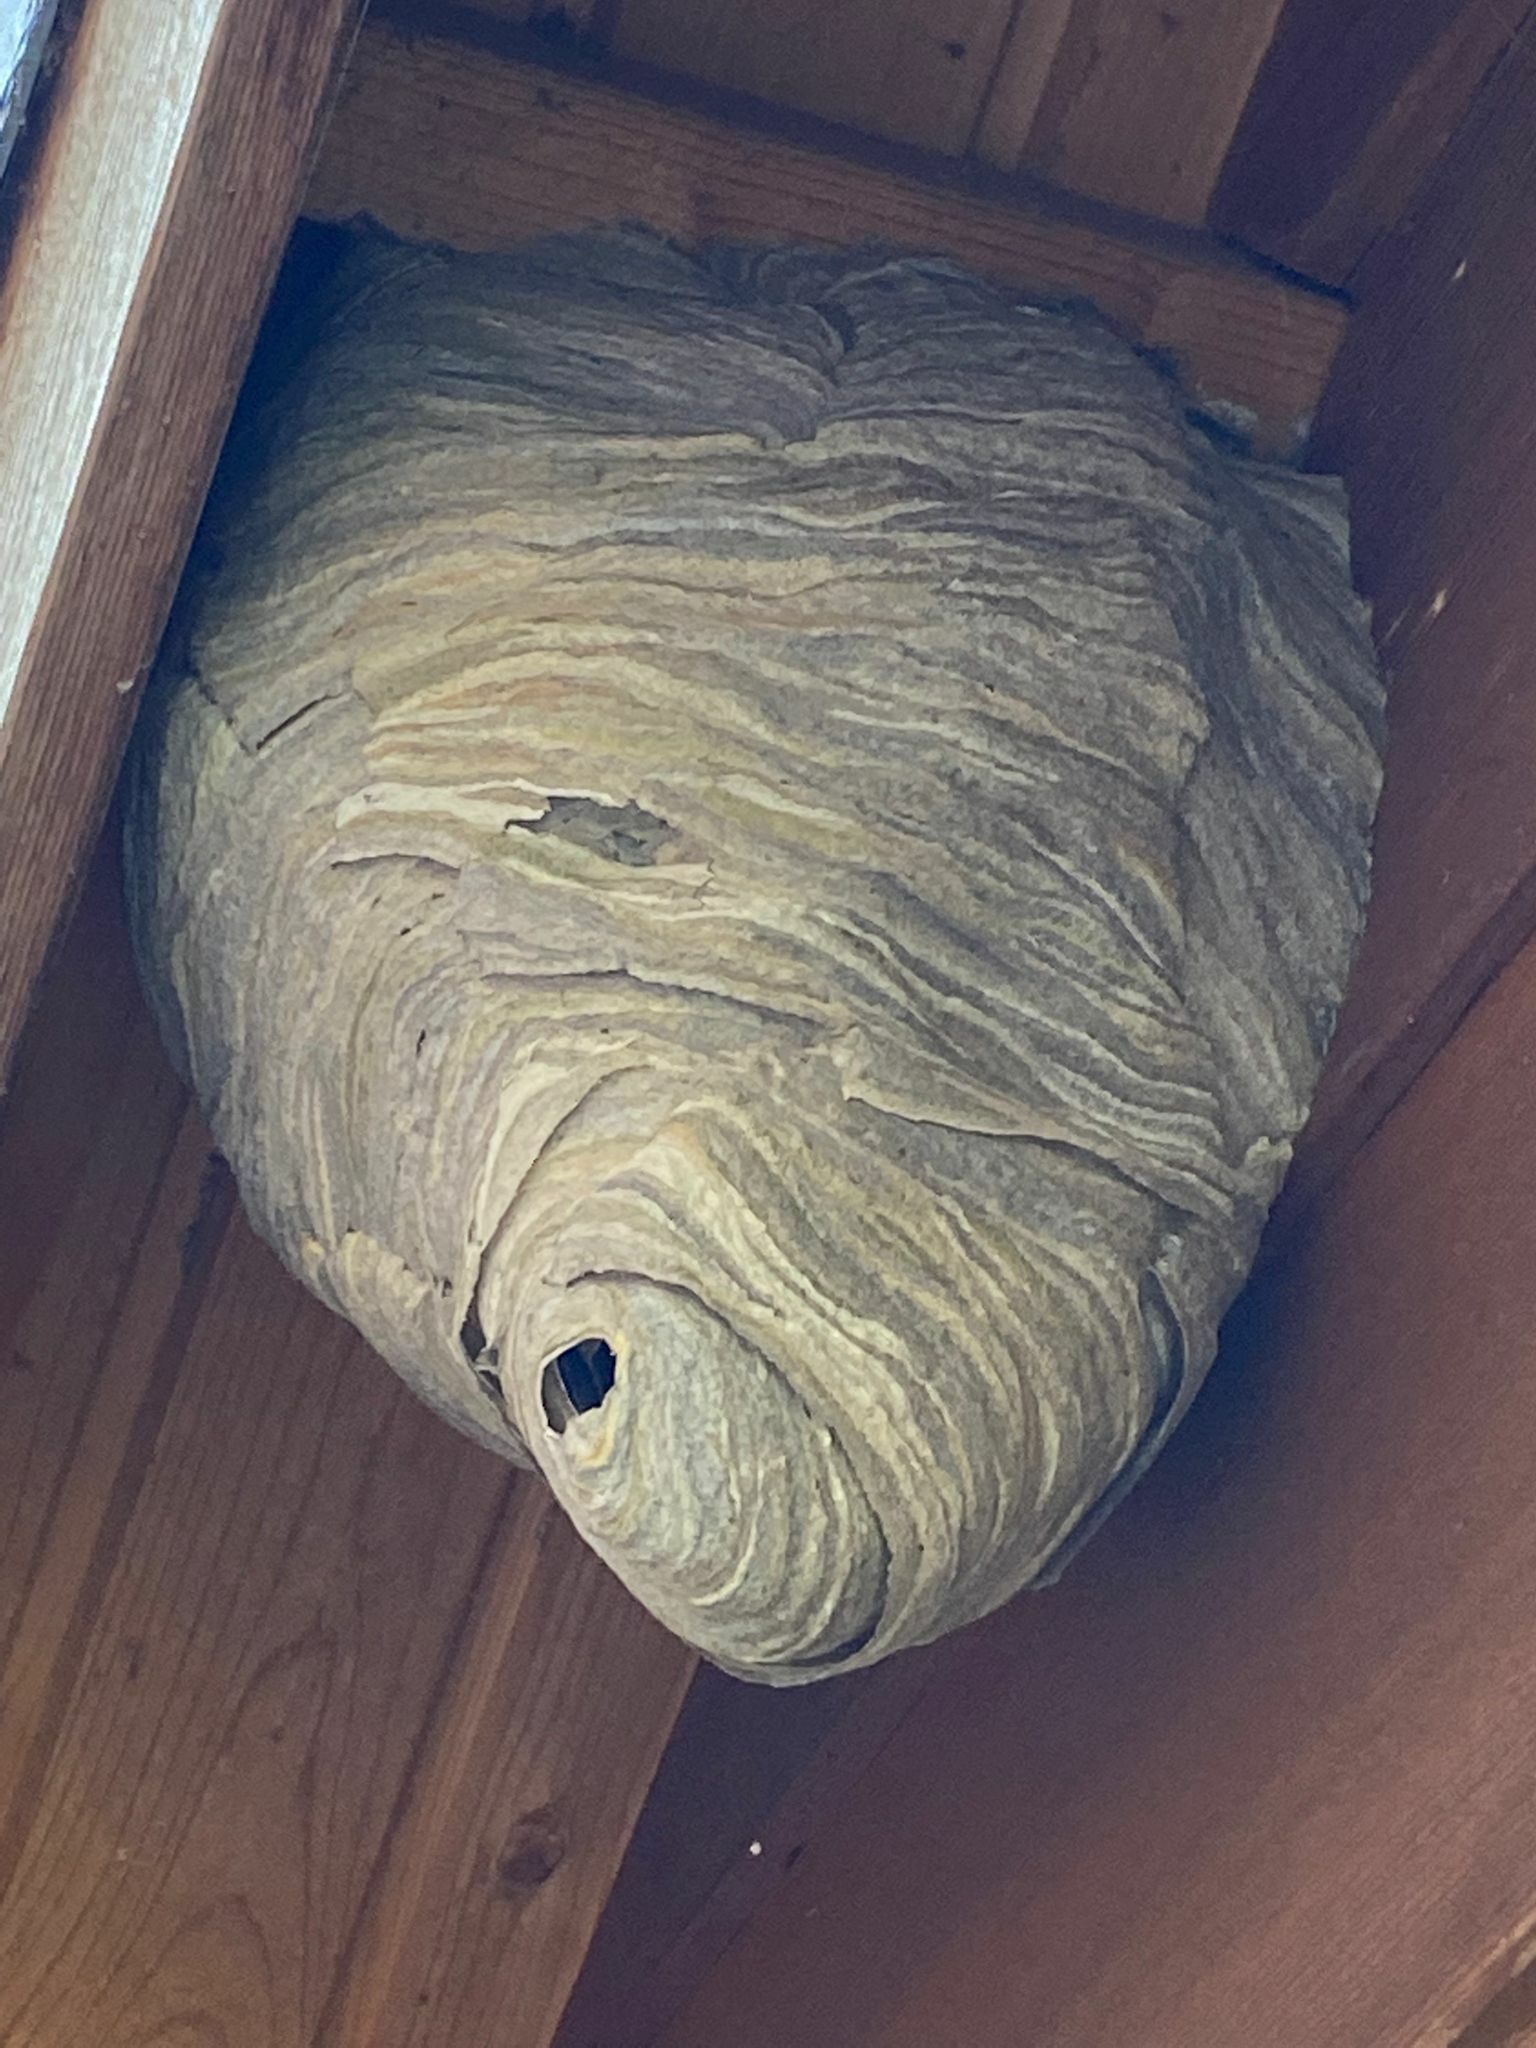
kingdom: Animalia
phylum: Arthropoda
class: Insecta
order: Hymenoptera
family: Vespidae
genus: Dolichovespula
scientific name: Dolichovespula media
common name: Median wasp
